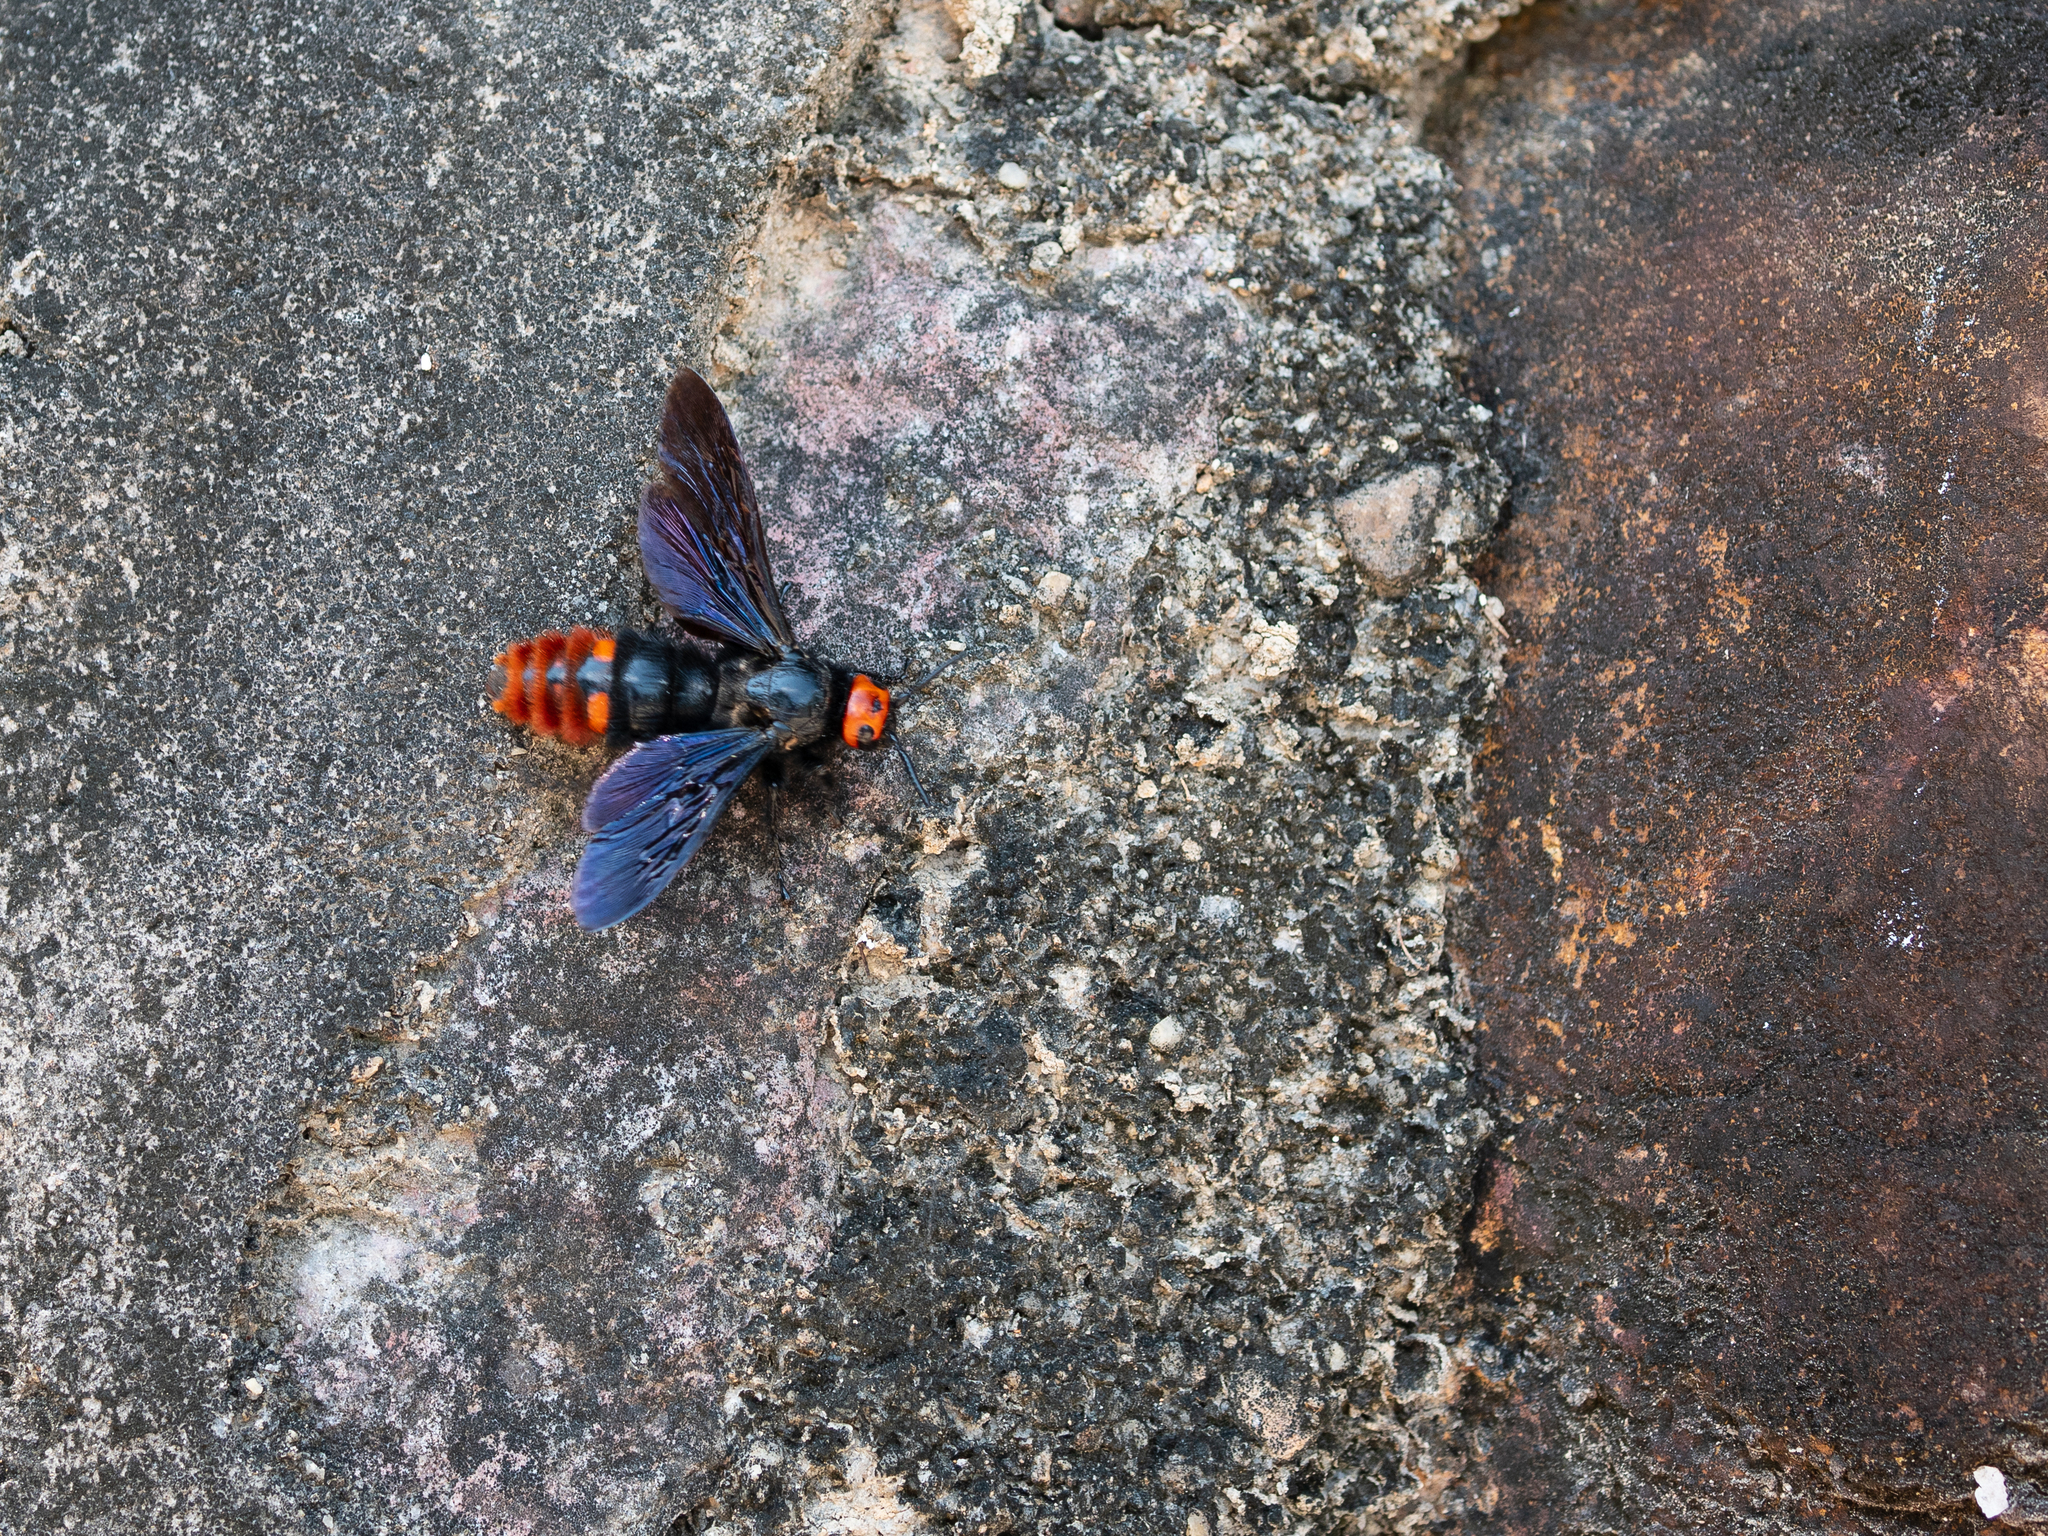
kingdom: Animalia
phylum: Arthropoda
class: Insecta
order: Hymenoptera
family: Scoliidae
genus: Megascolia
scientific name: Megascolia azurea
